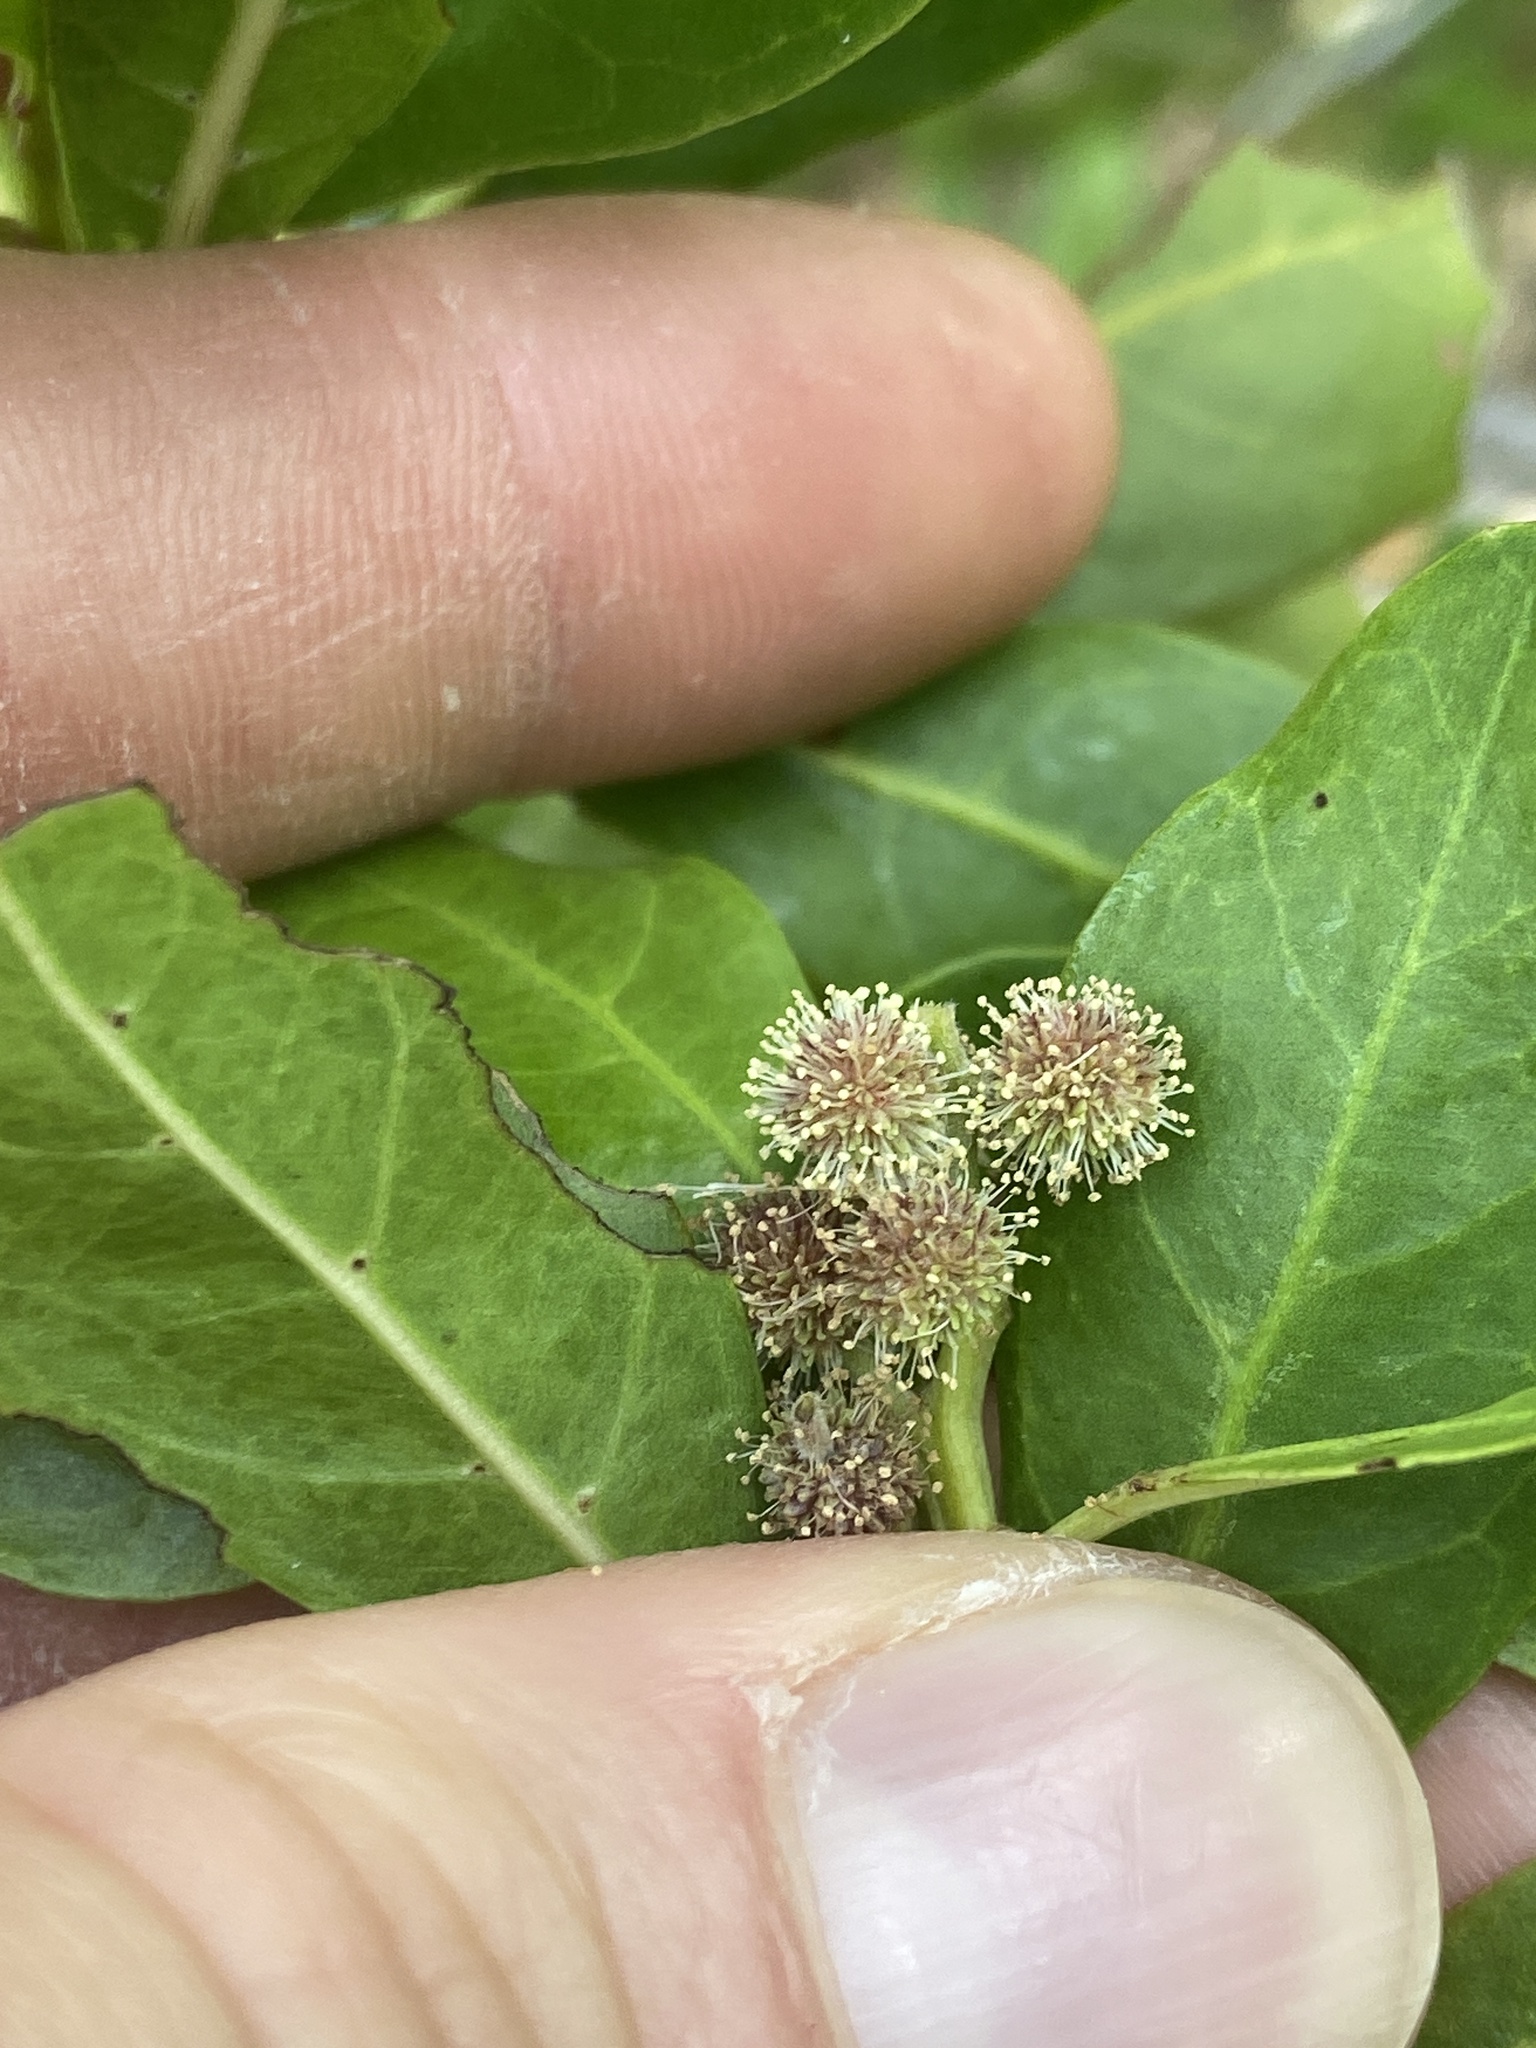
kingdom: Plantae
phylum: Tracheophyta
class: Magnoliopsida
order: Myrtales
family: Combretaceae
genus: Conocarpus
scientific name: Conocarpus erectus
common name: Button mangrove
